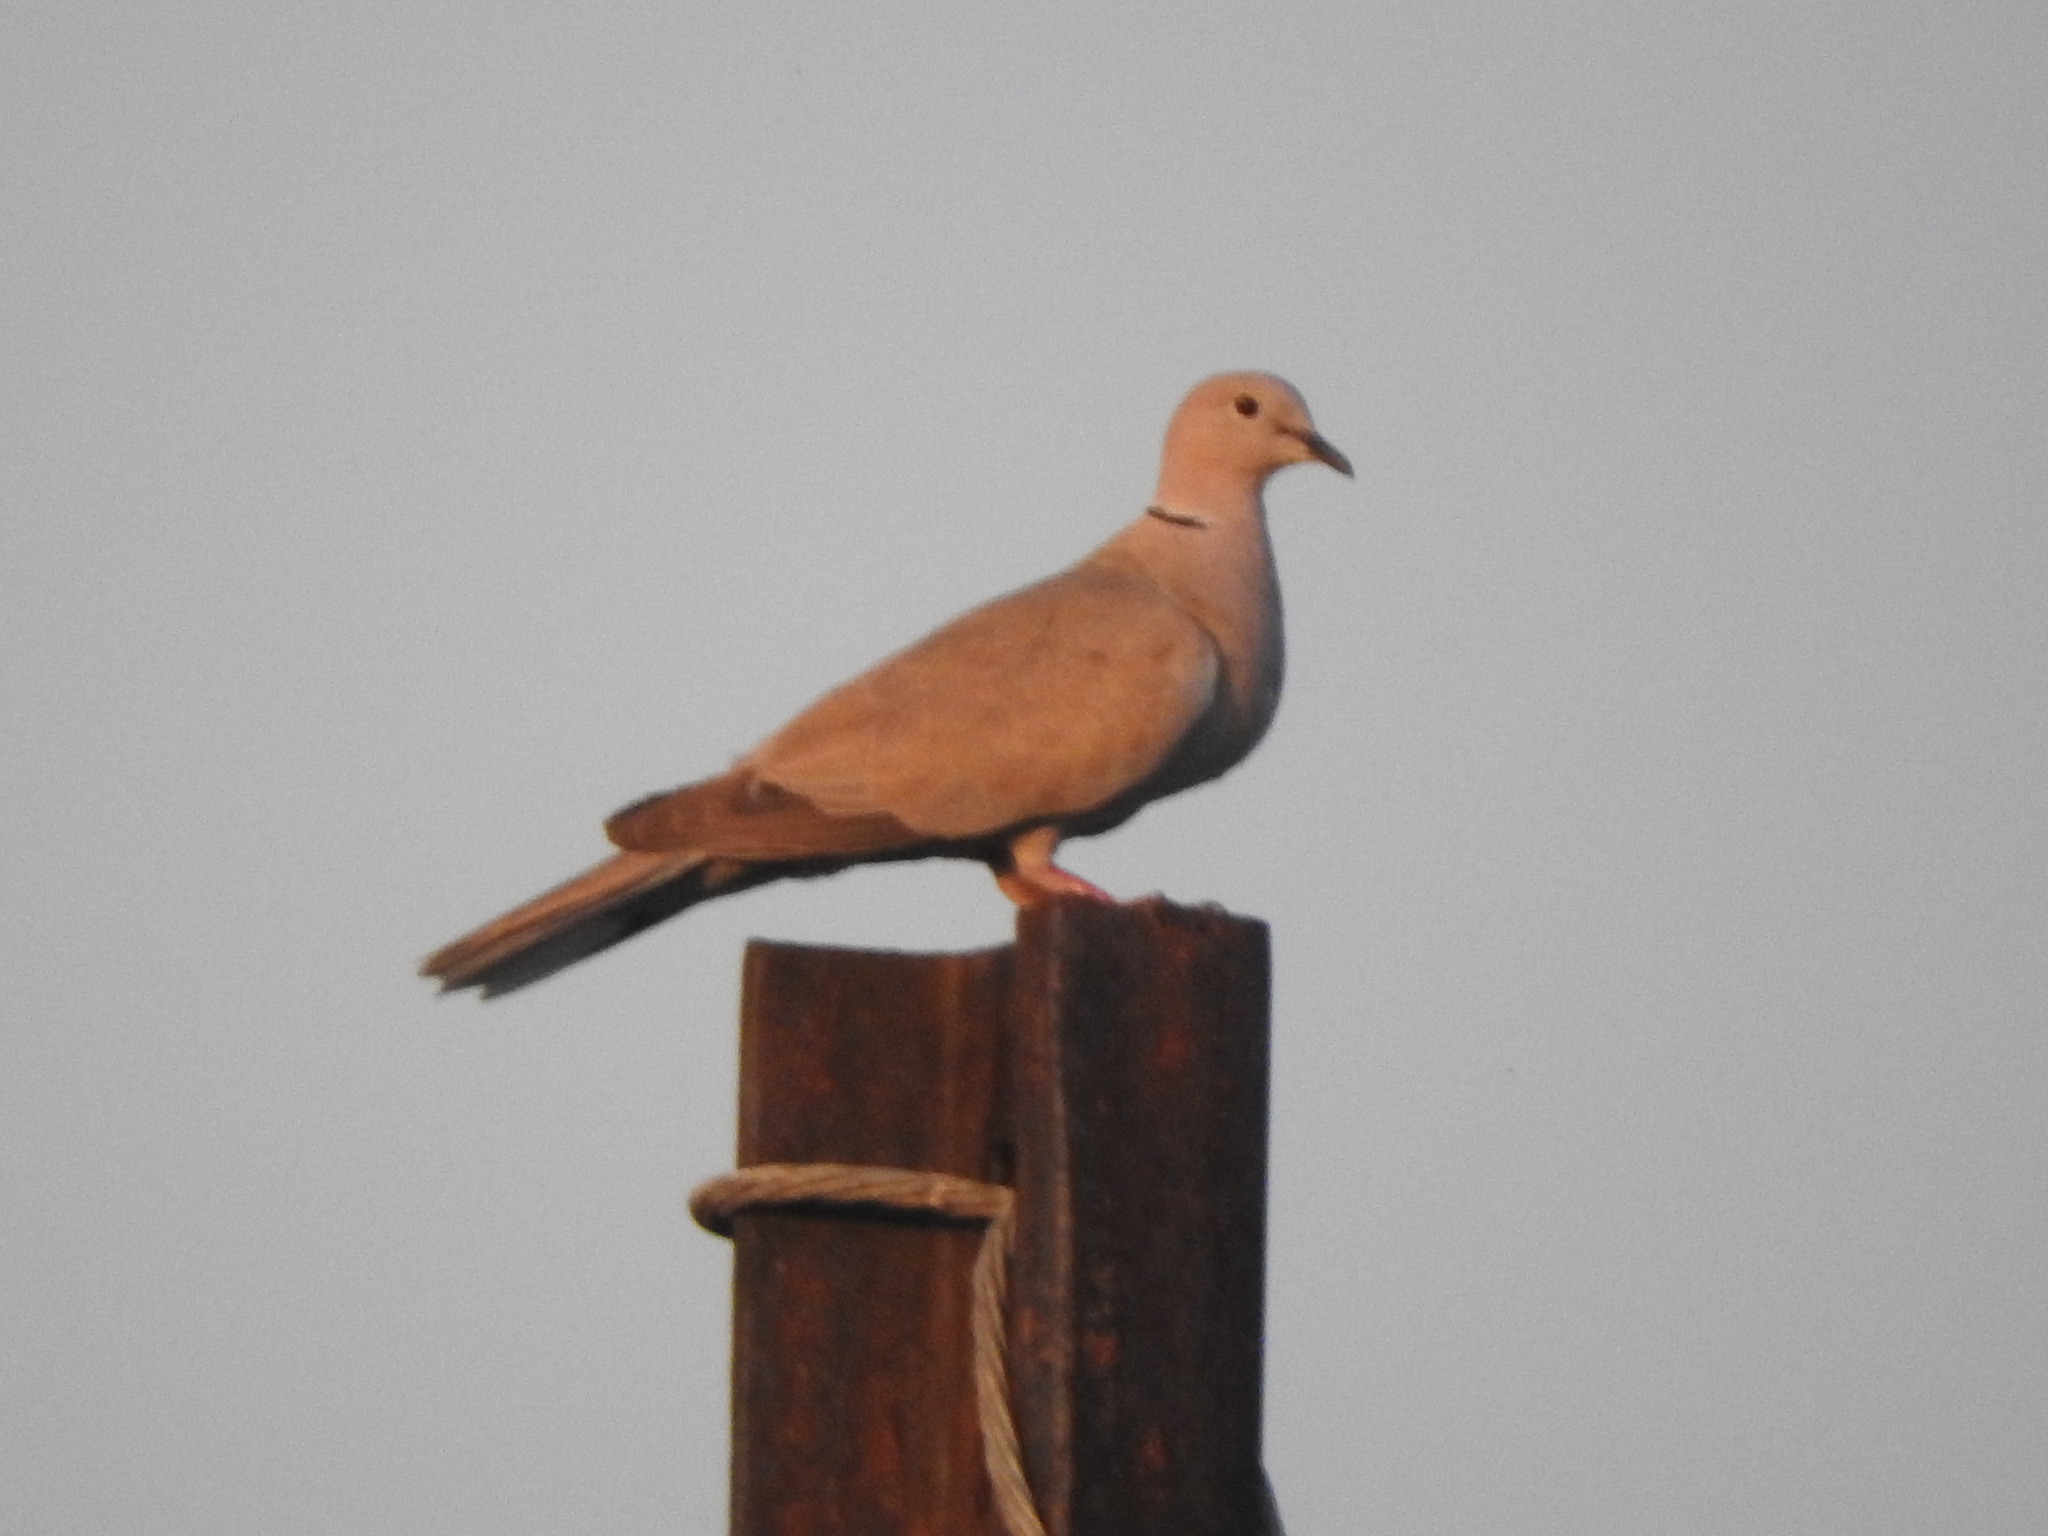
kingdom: Animalia
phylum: Chordata
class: Aves
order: Columbiformes
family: Columbidae
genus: Streptopelia
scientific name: Streptopelia decaocto
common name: Eurasian collared dove
